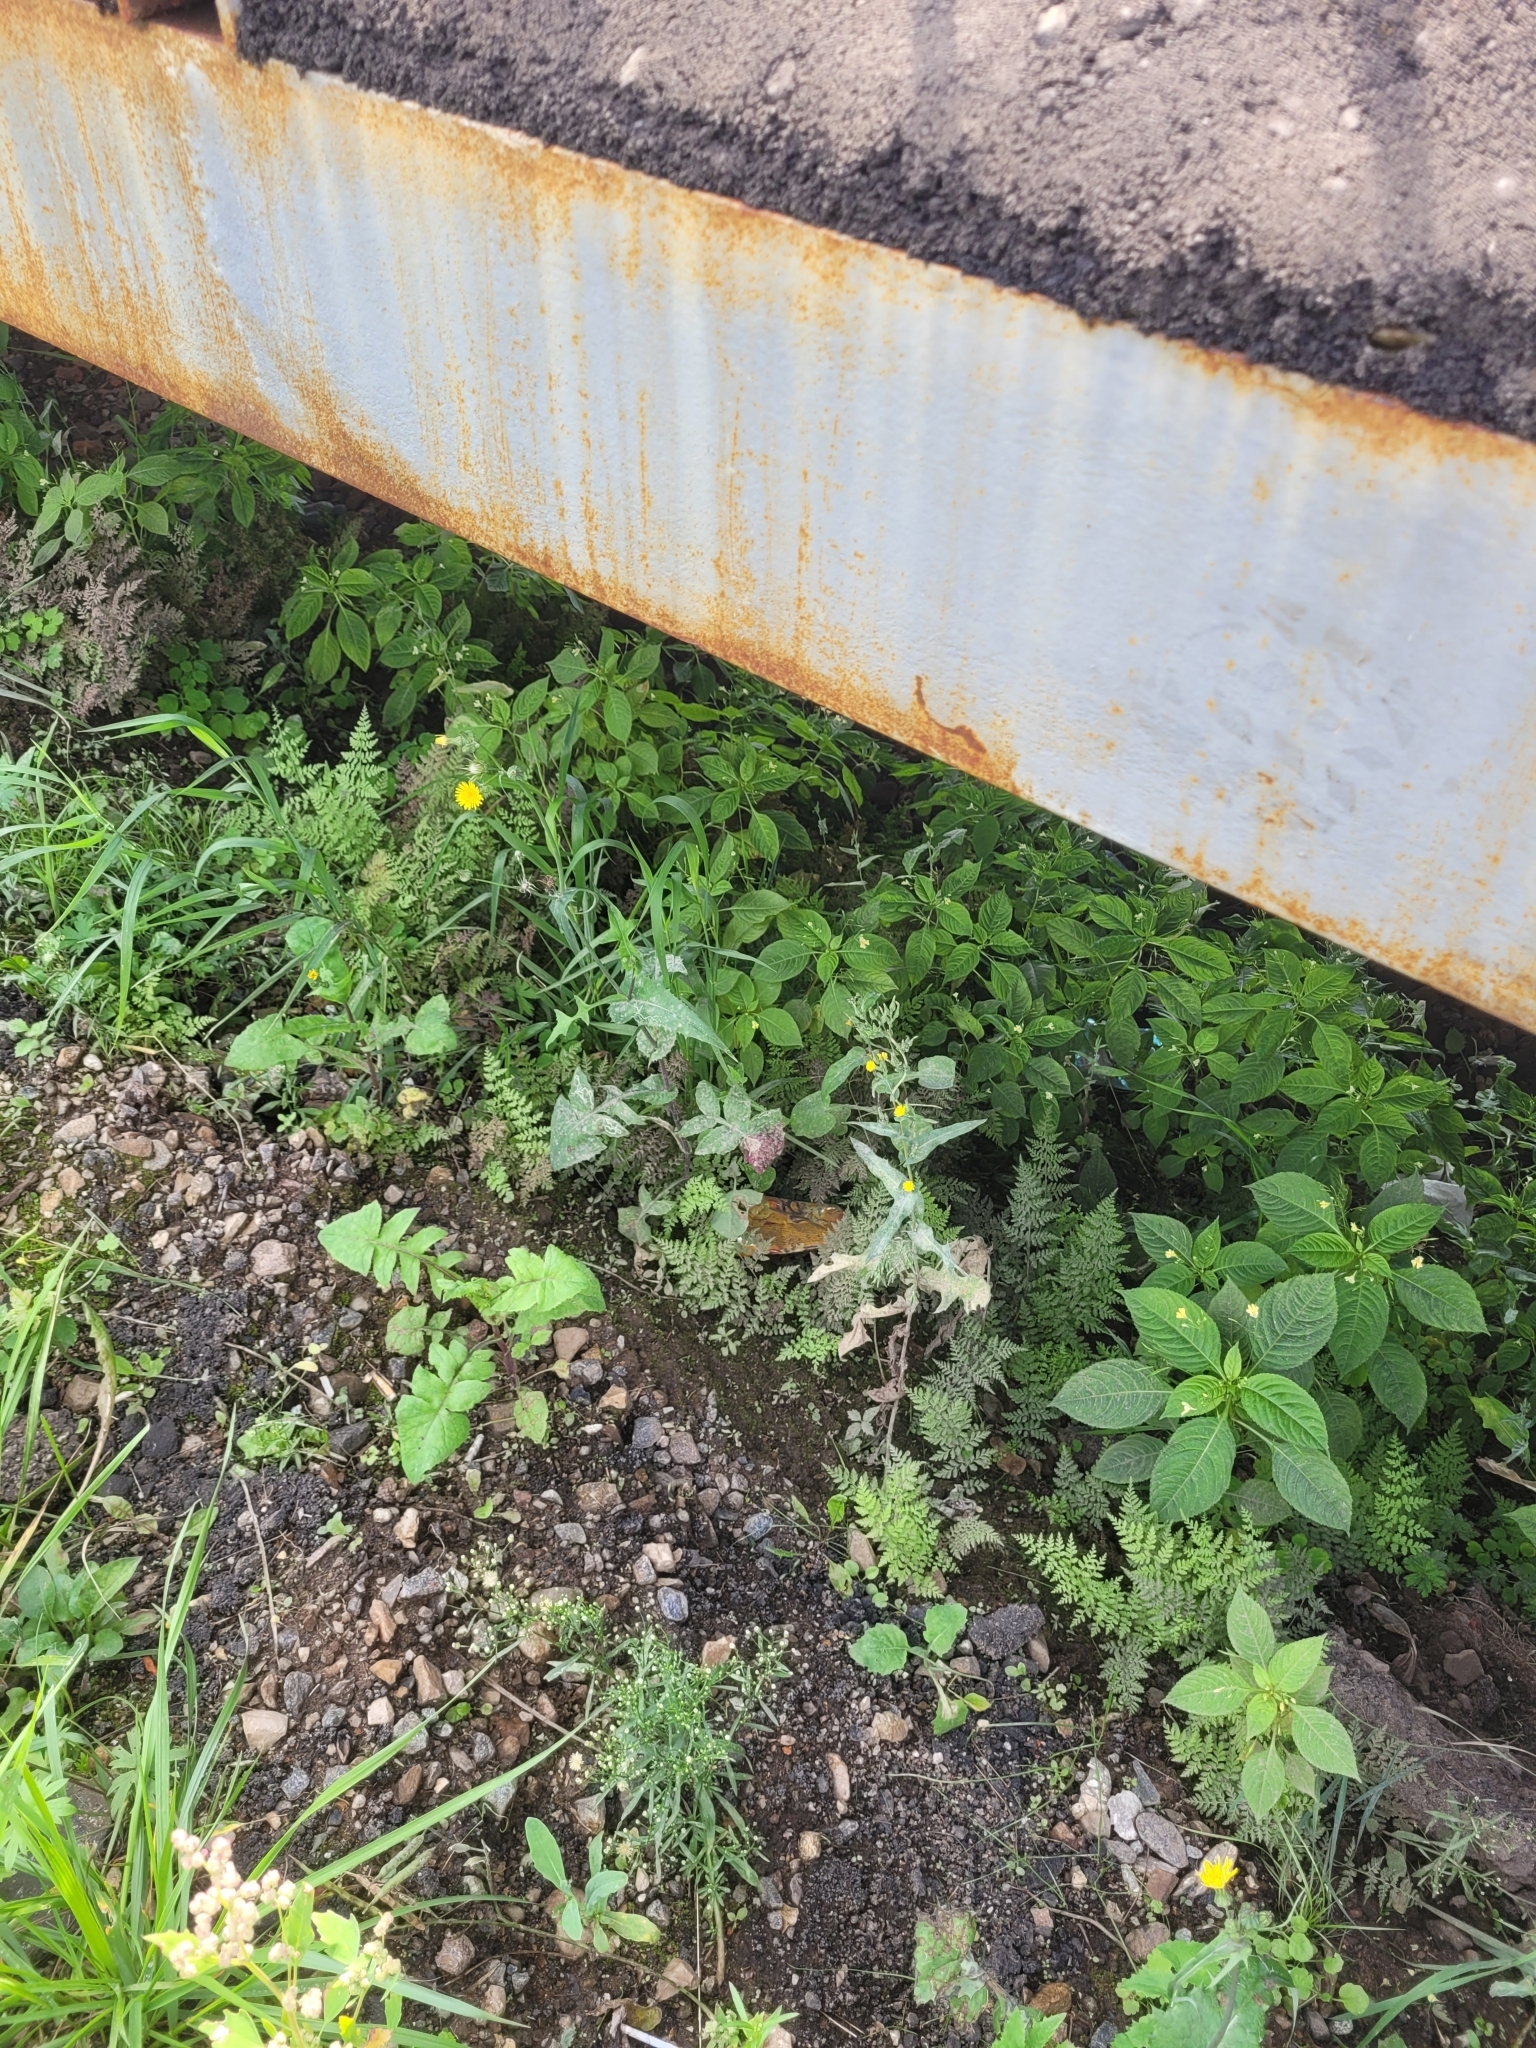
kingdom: Plantae
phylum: Tracheophyta
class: Polypodiopsida
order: Polypodiales
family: Cystopteridaceae
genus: Cystopteris
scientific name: Cystopteris fragilis
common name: Brittle bladder fern
